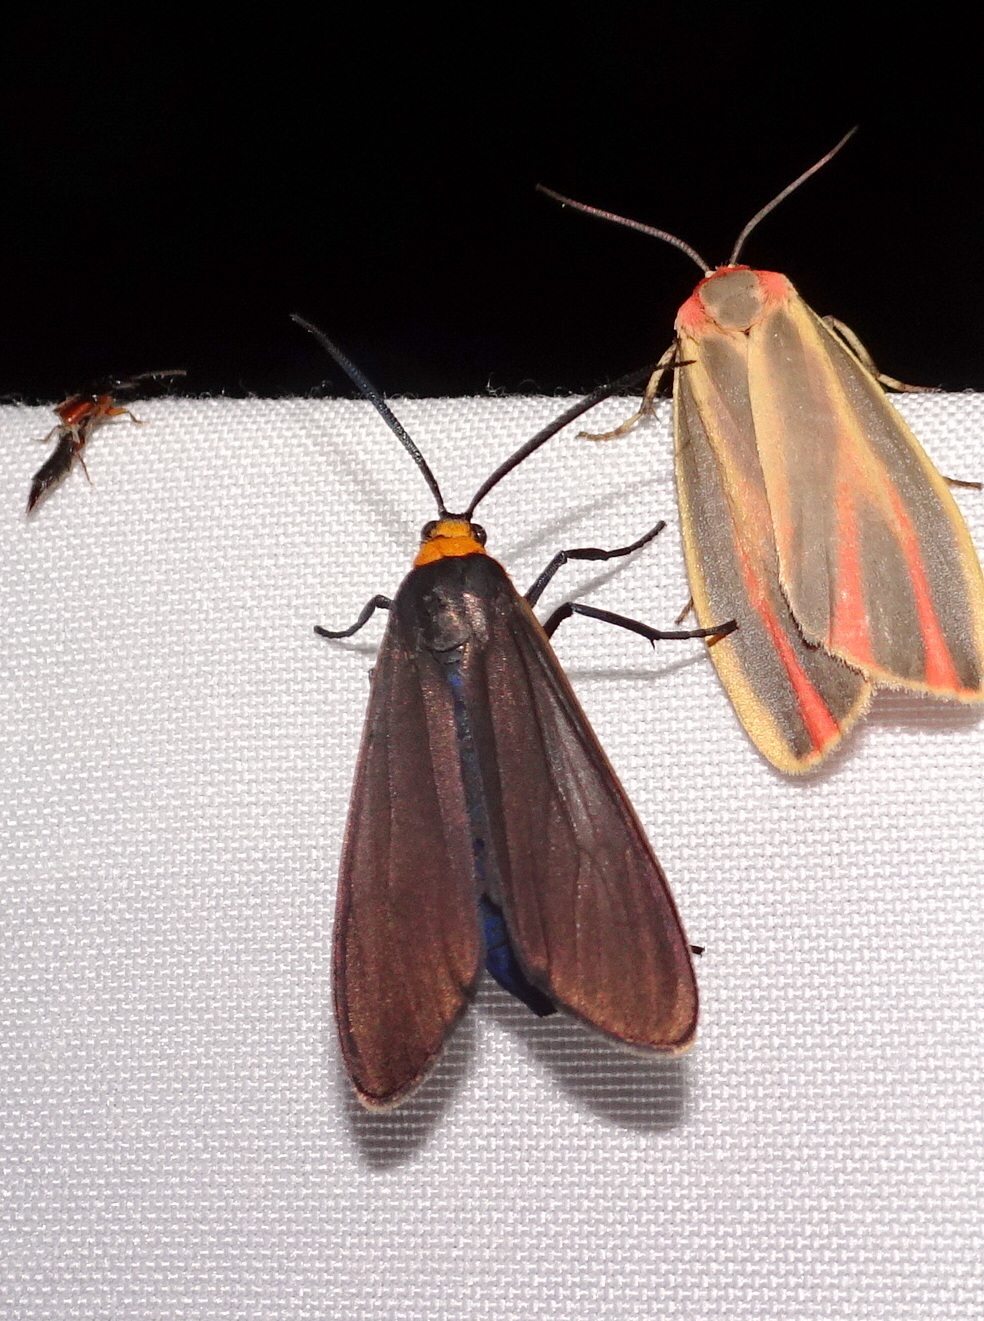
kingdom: Animalia
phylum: Arthropoda
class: Insecta
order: Lepidoptera
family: Erebidae
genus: Cisseps
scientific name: Cisseps fulvicollis
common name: Yellow-collared scape moth
